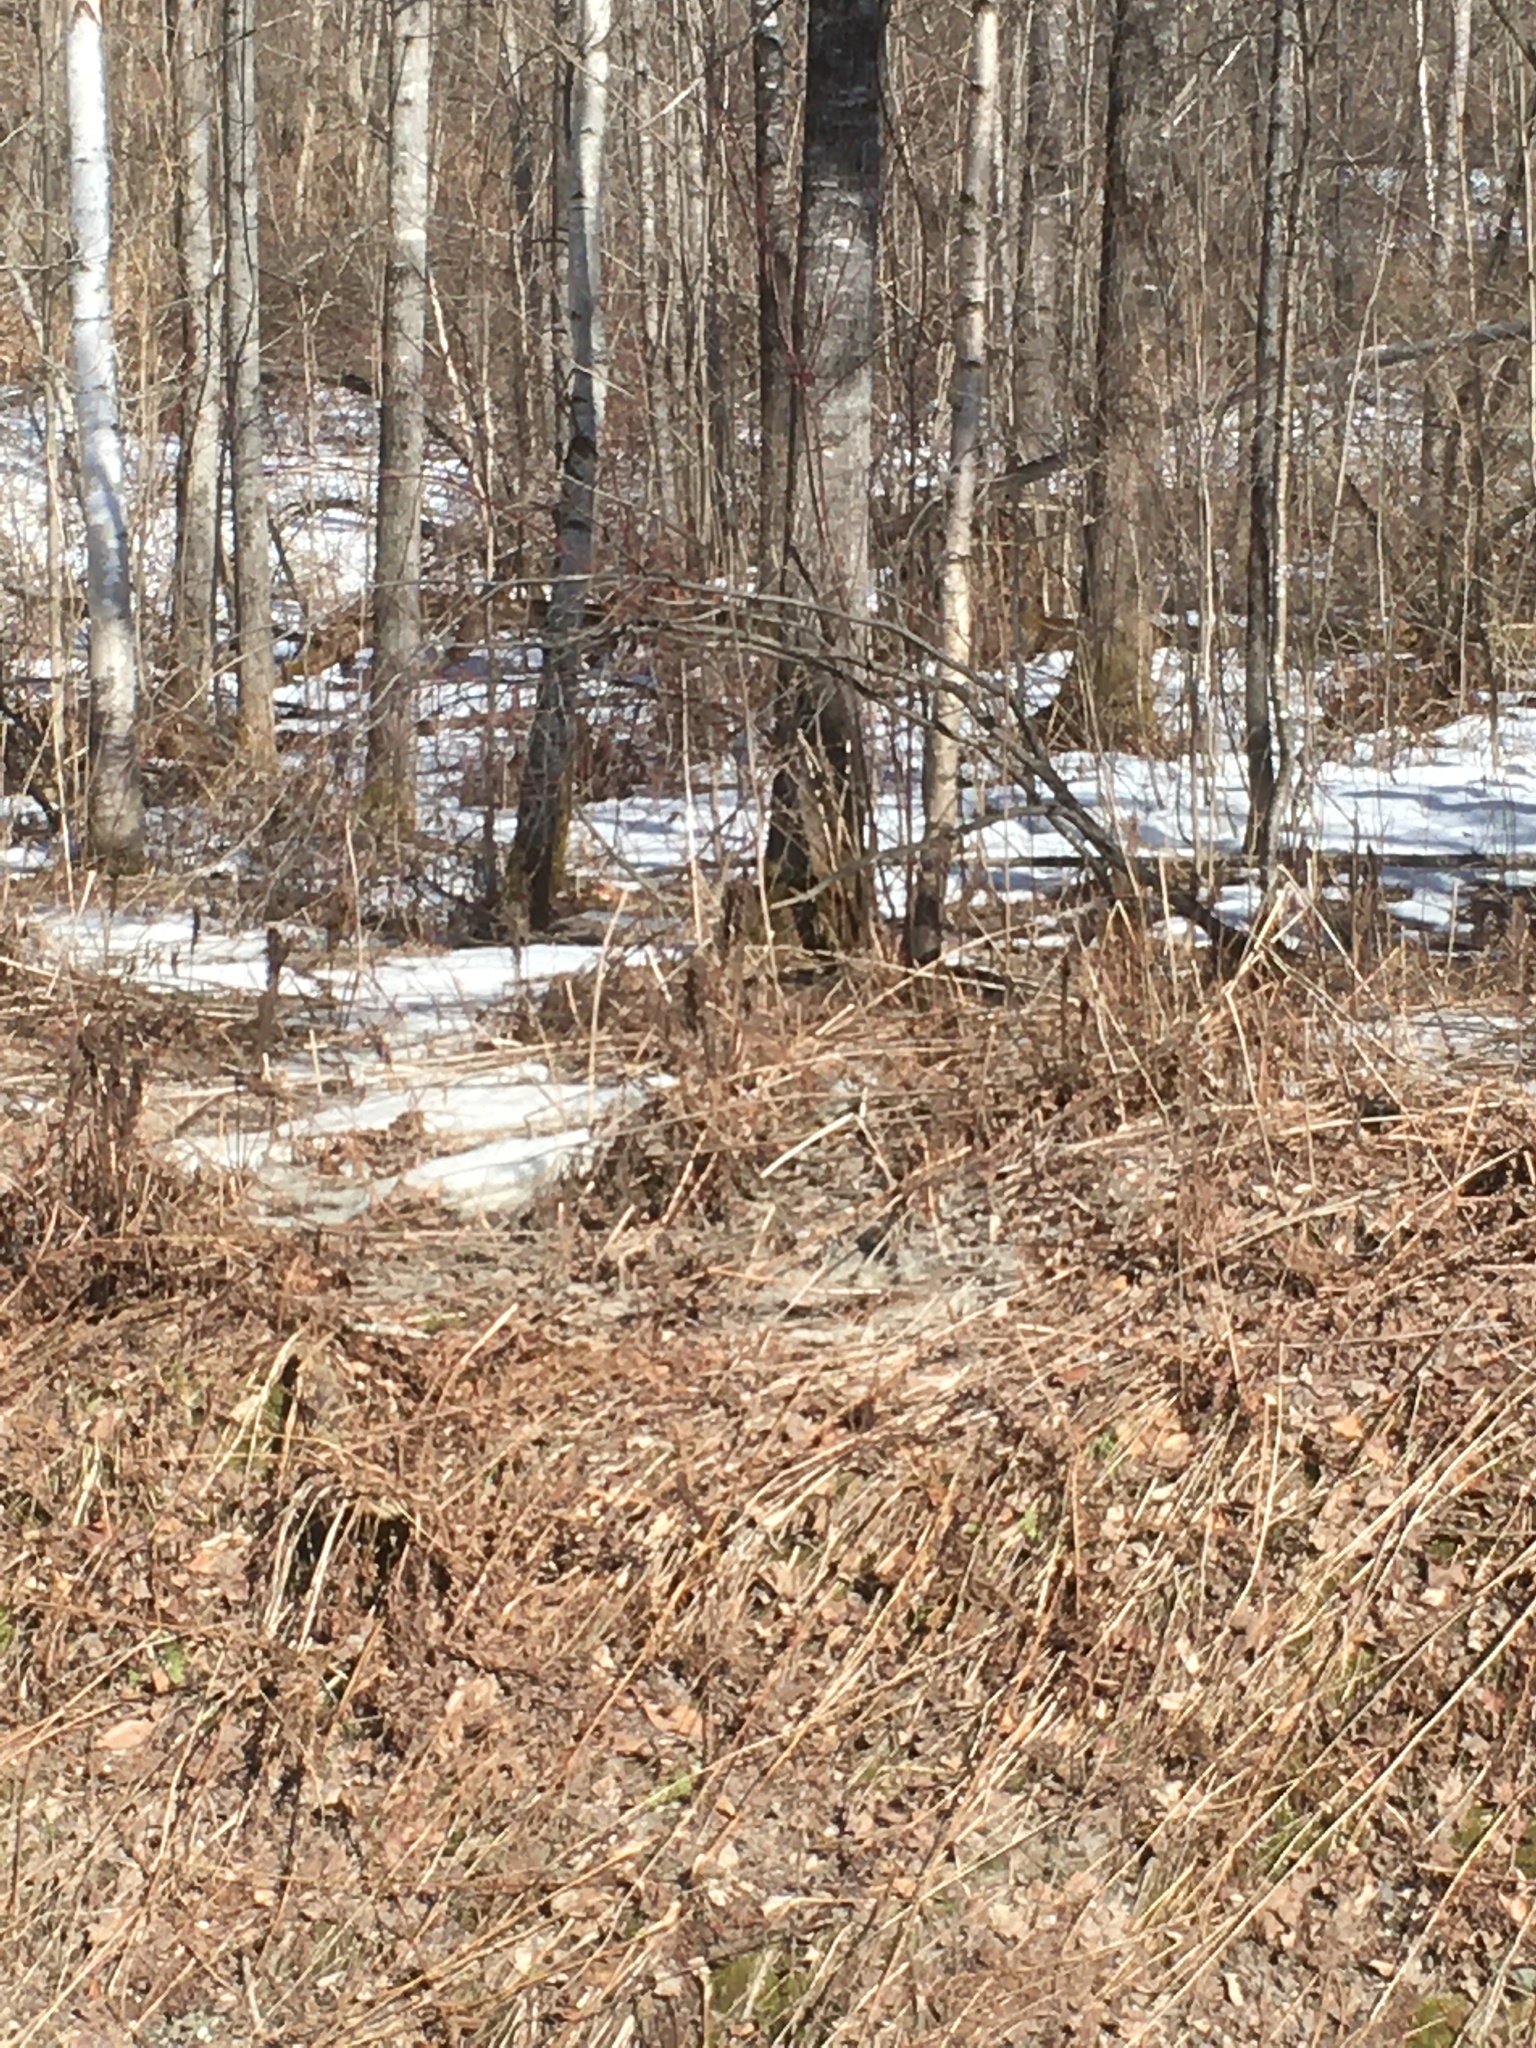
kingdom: Plantae
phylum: Tracheophyta
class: Polypodiopsida
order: Polypodiales
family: Onocleaceae
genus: Matteuccia
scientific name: Matteuccia struthiopteris
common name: Ostrich fern
